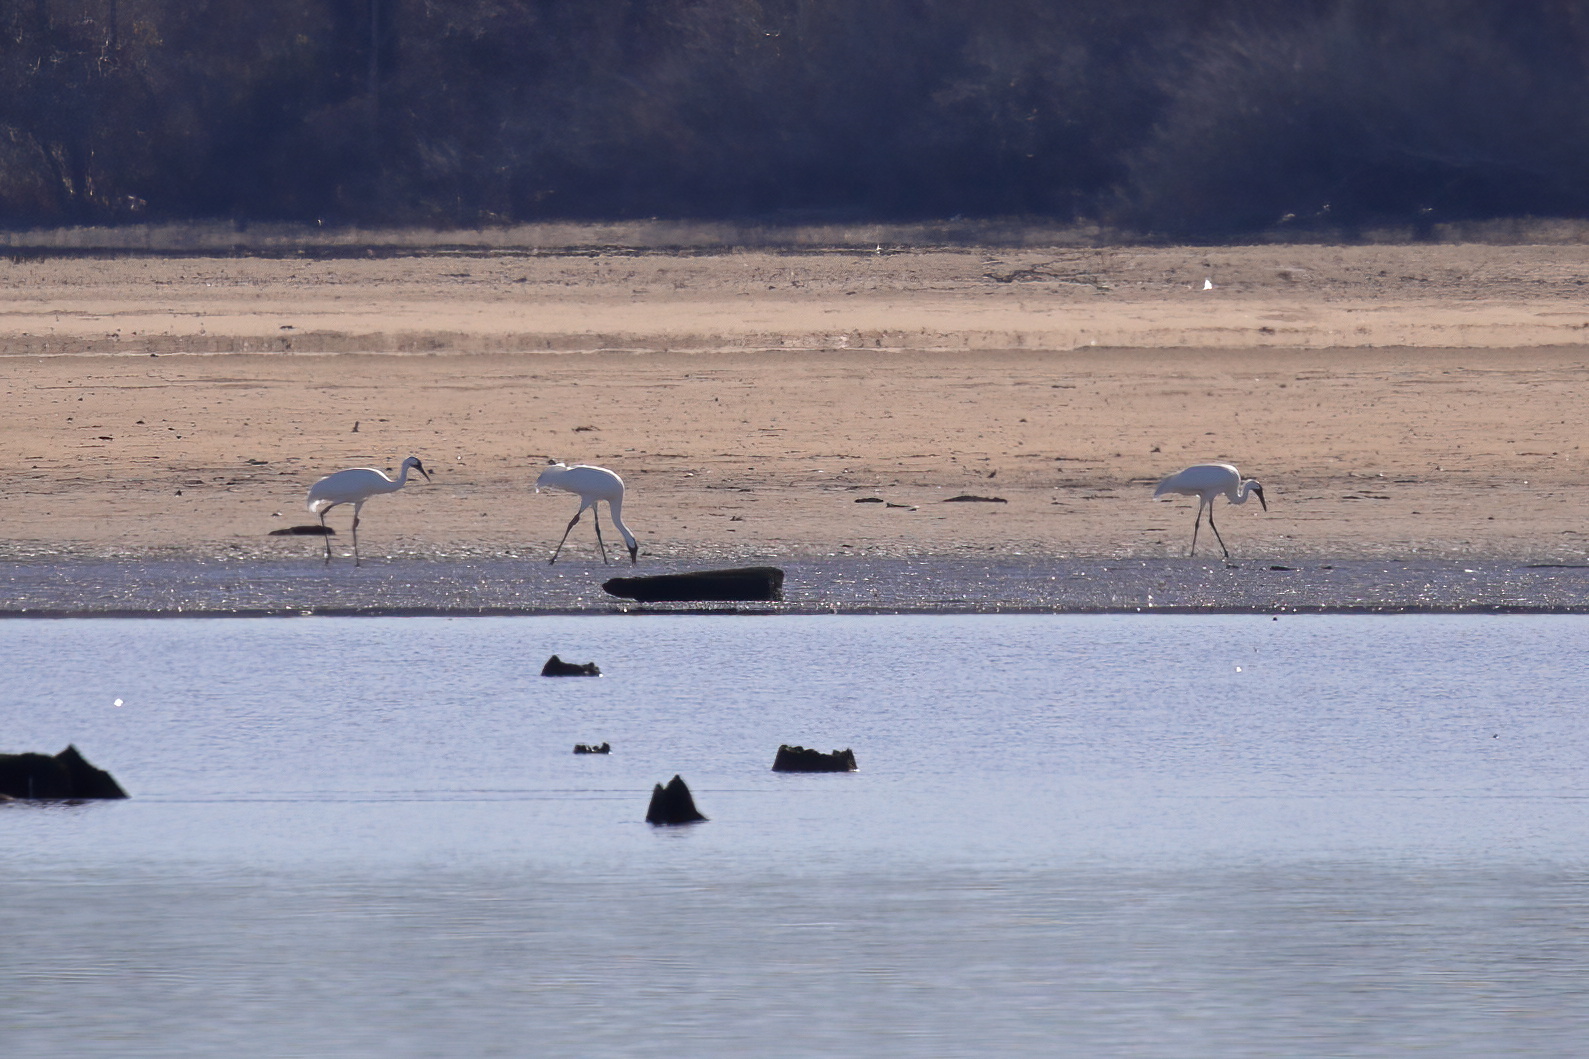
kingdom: Animalia
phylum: Chordata
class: Aves
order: Gruiformes
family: Gruidae
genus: Grus
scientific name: Grus americana
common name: Whooping crane
